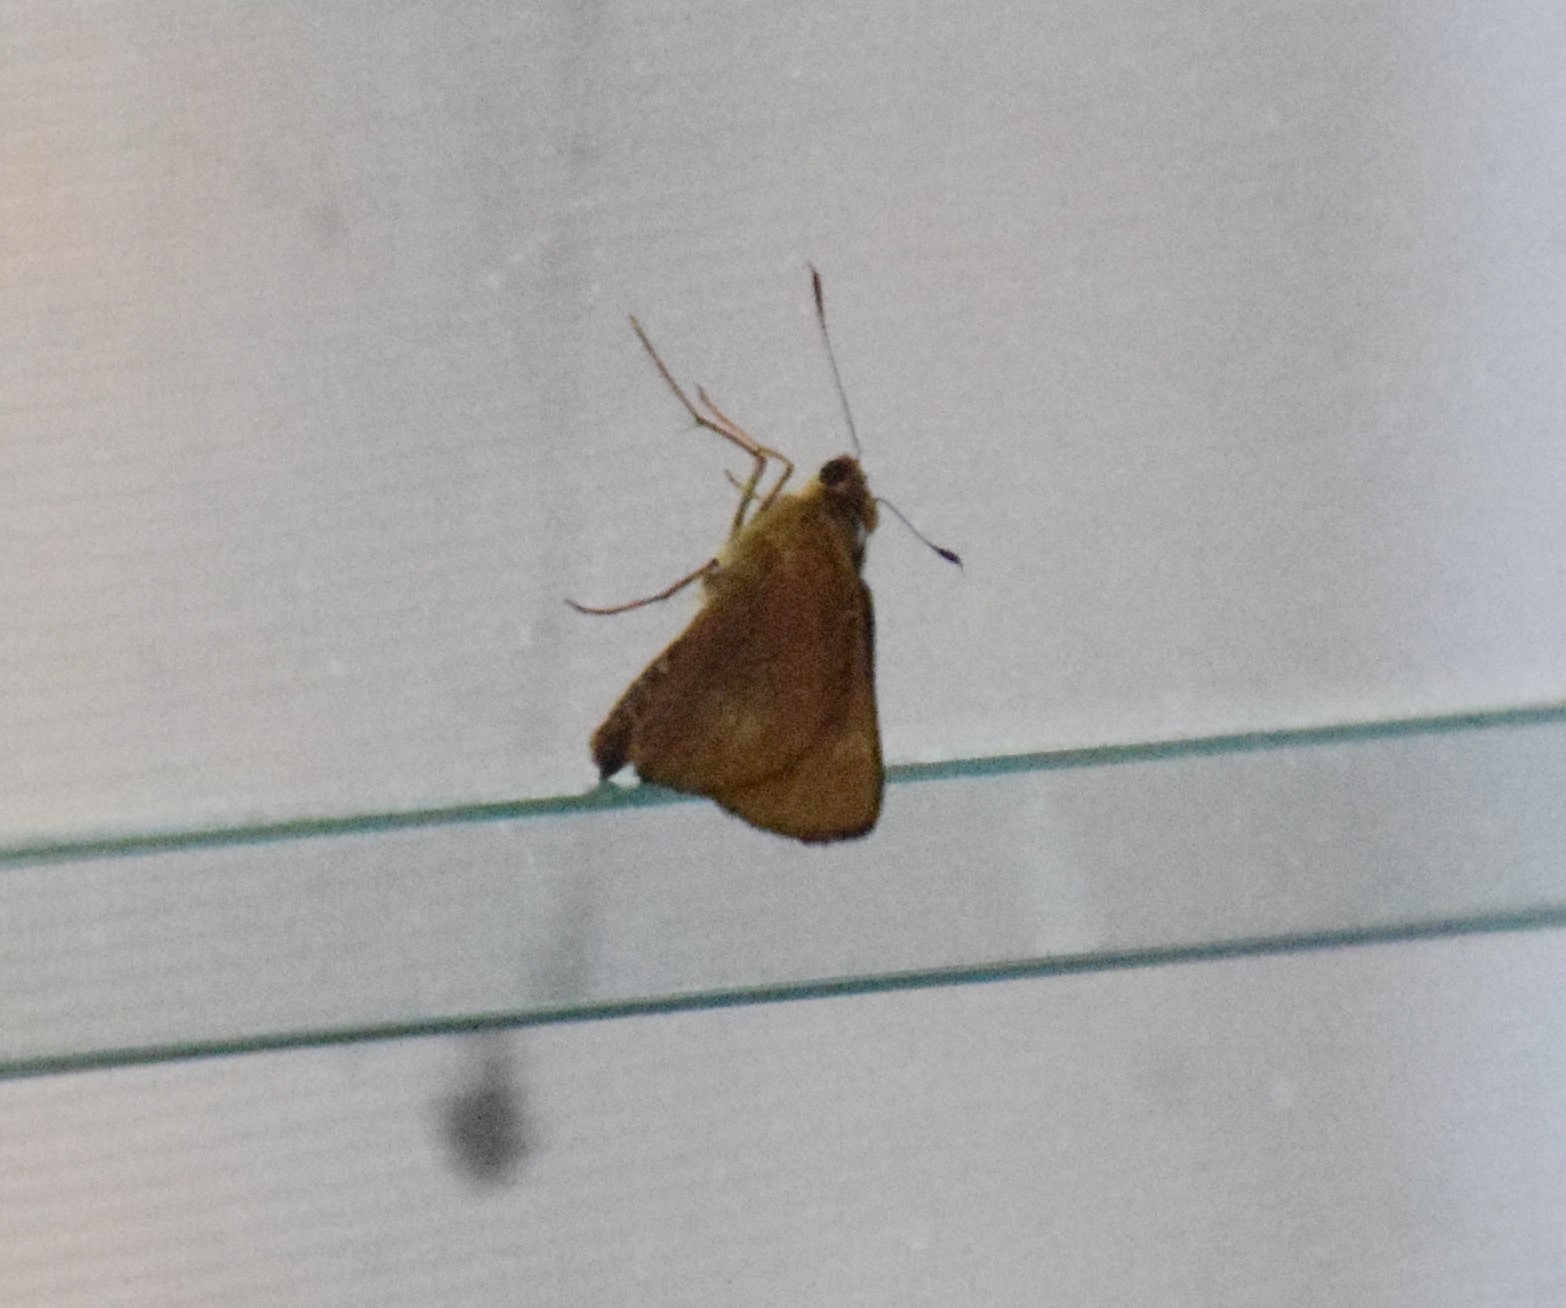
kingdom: Animalia
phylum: Arthropoda
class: Insecta
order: Lepidoptera
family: Hesperiidae
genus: Cephrenes
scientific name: Cephrenes augiades
